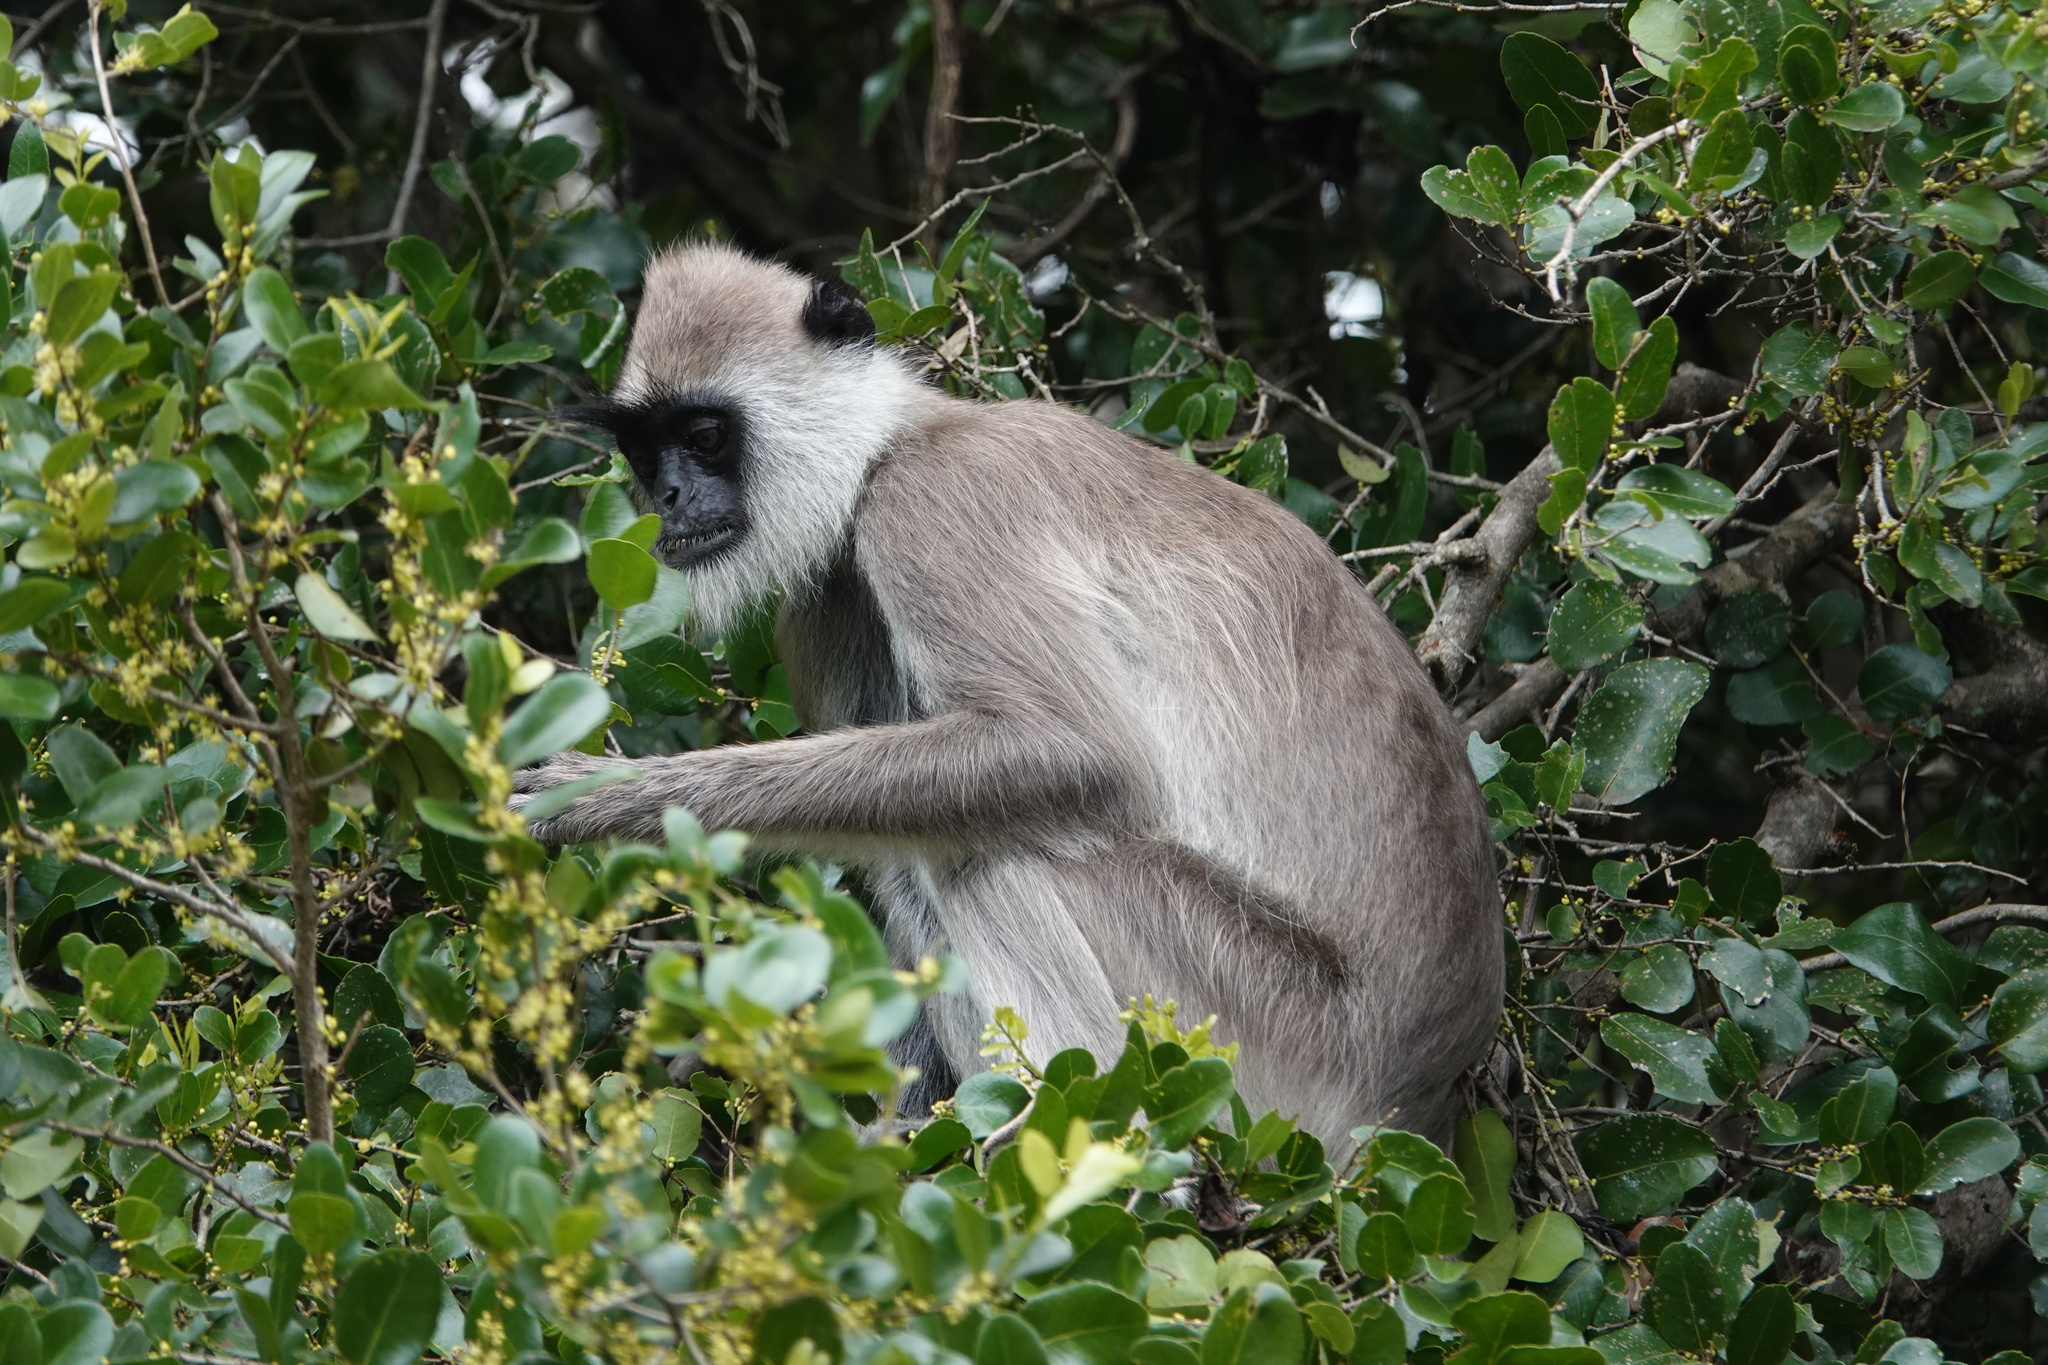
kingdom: Animalia
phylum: Chordata
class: Mammalia
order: Primates
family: Cercopithecidae
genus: Semnopithecus
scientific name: Semnopithecus priam
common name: Tufted gray langur
